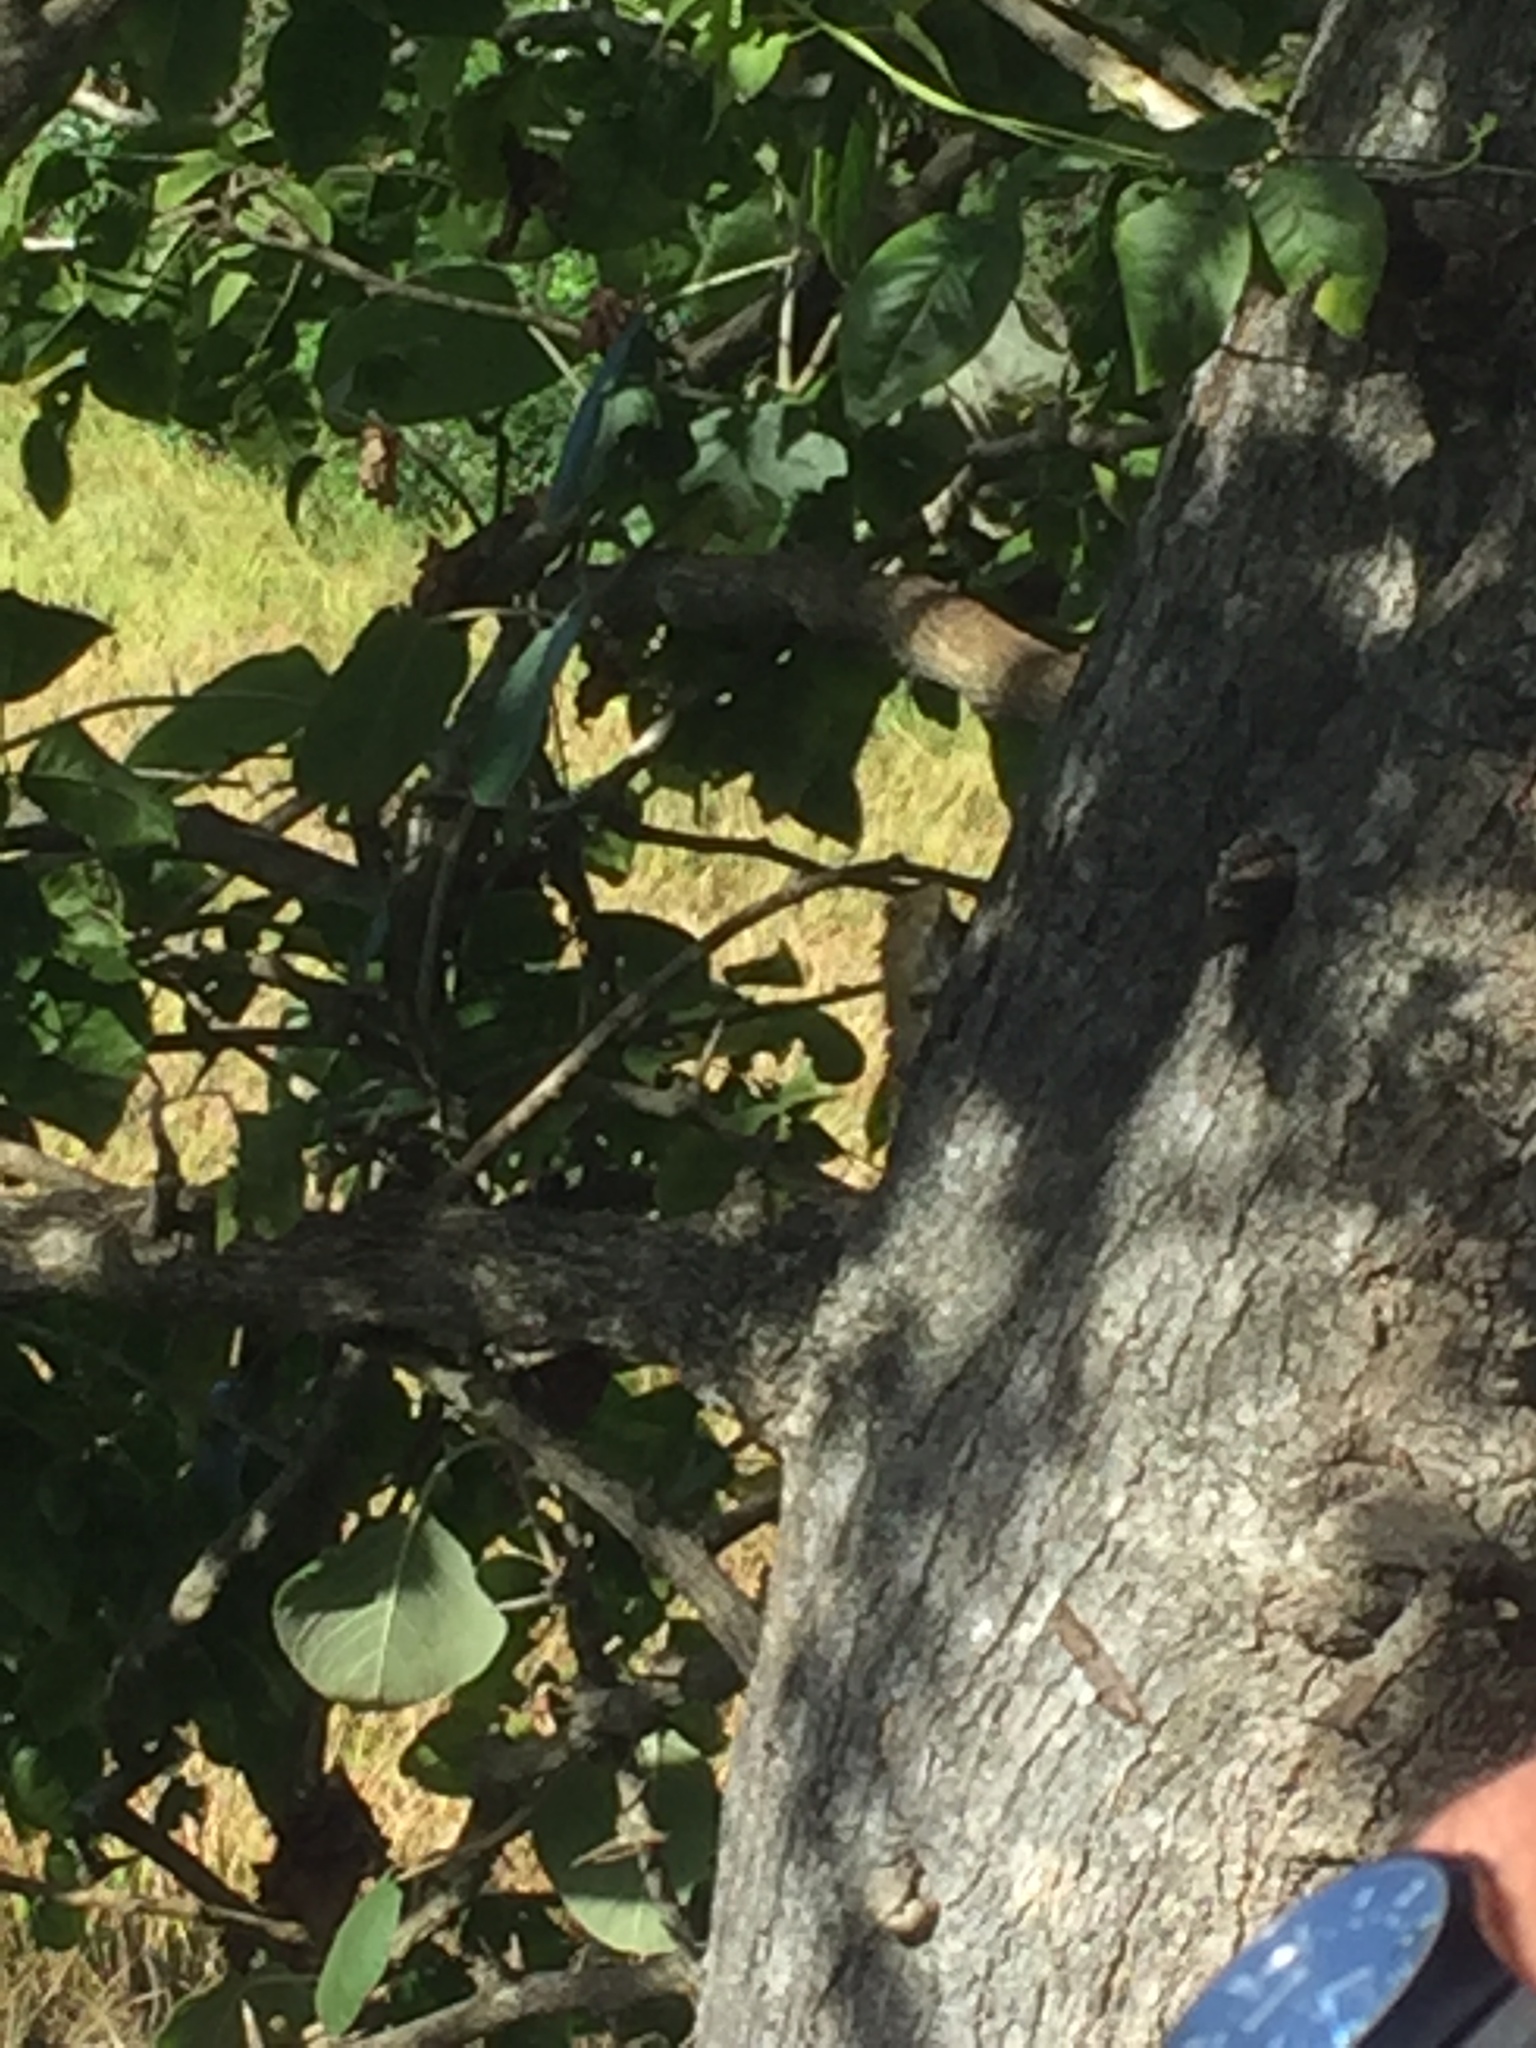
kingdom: Animalia
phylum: Chordata
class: Squamata
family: Agamidae
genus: Calotes
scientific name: Calotes versicolor
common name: Oriental garden lizard
